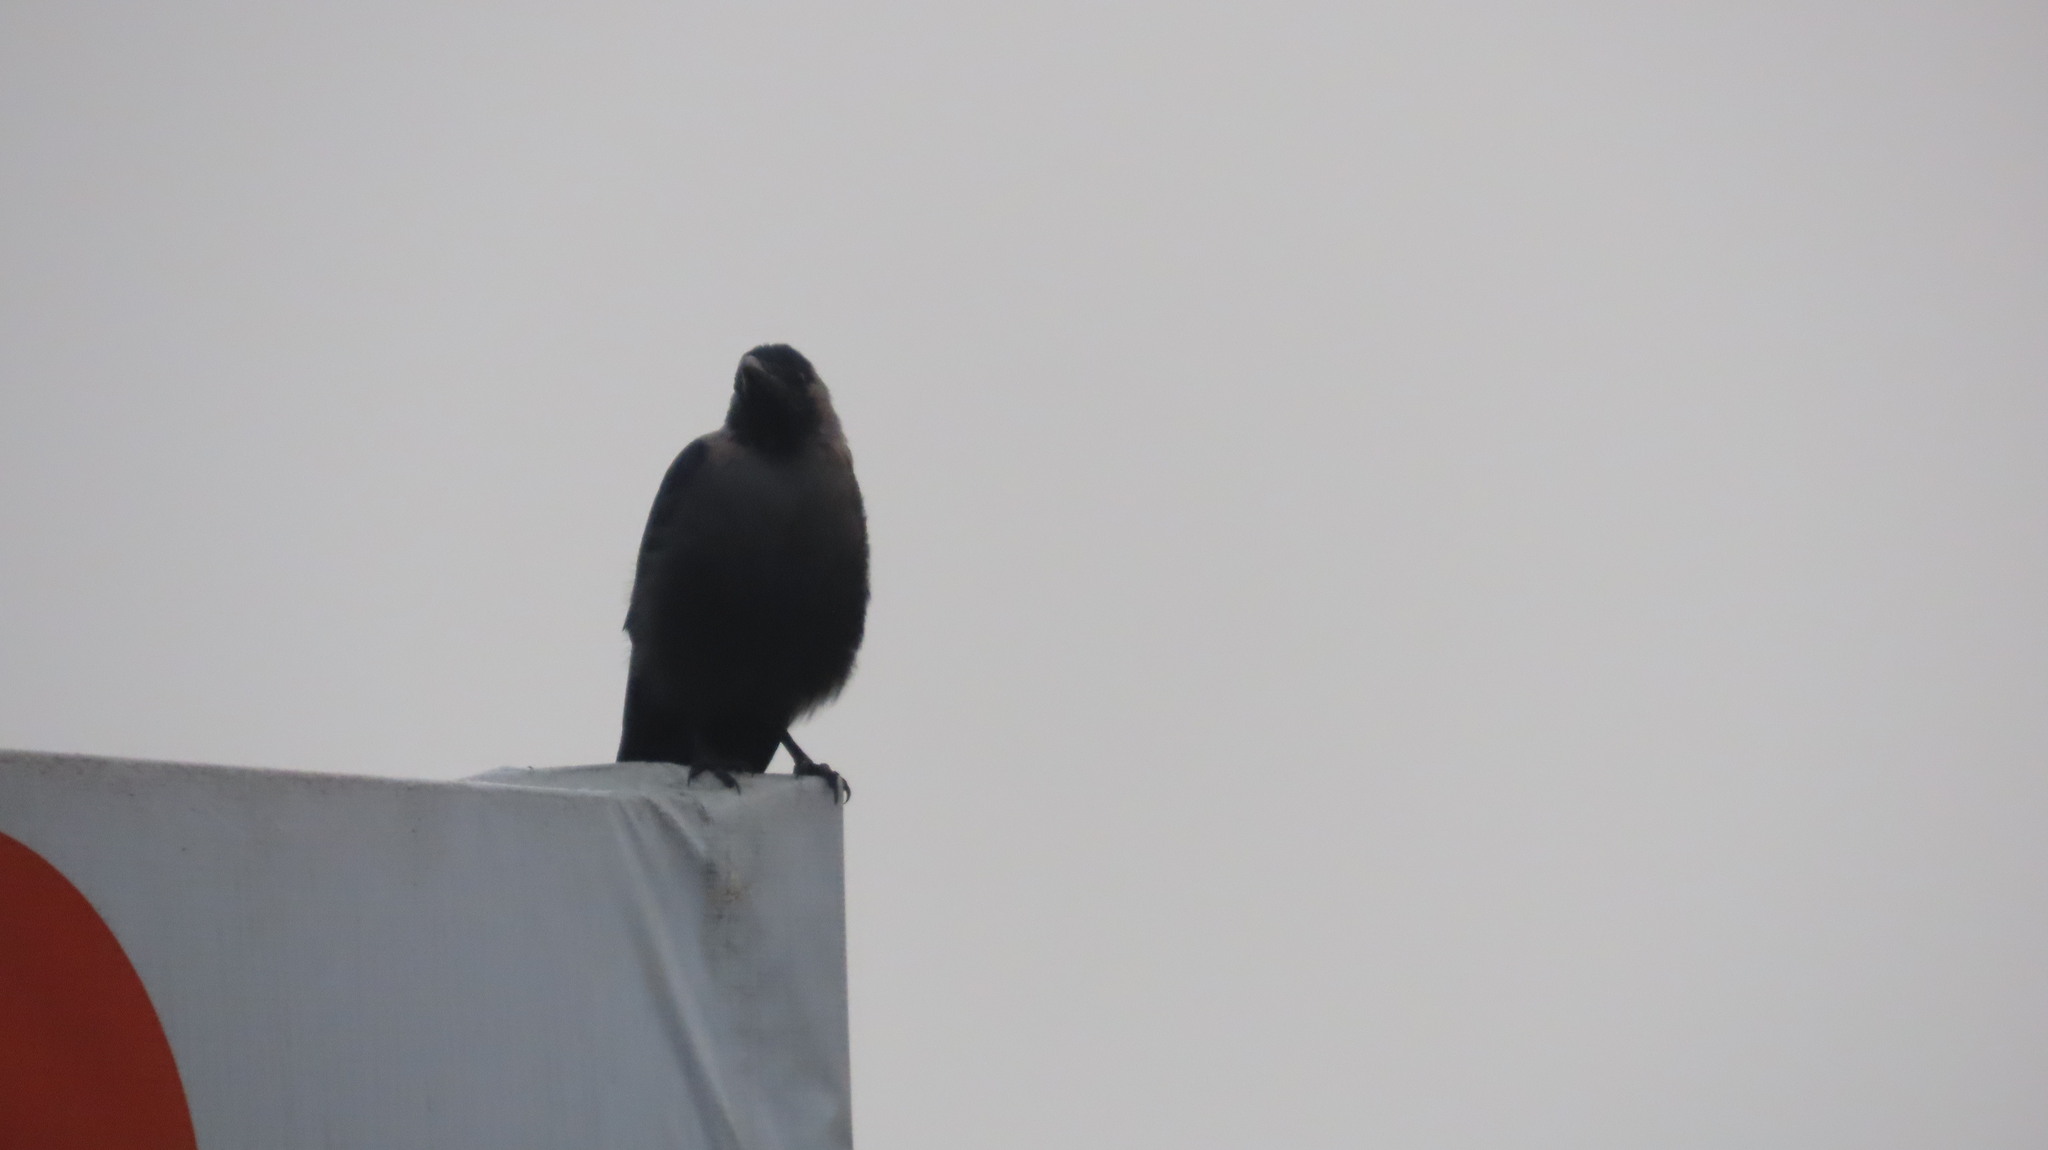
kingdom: Animalia
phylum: Chordata
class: Aves
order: Passeriformes
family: Corvidae
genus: Corvus
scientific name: Corvus splendens
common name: House crow
